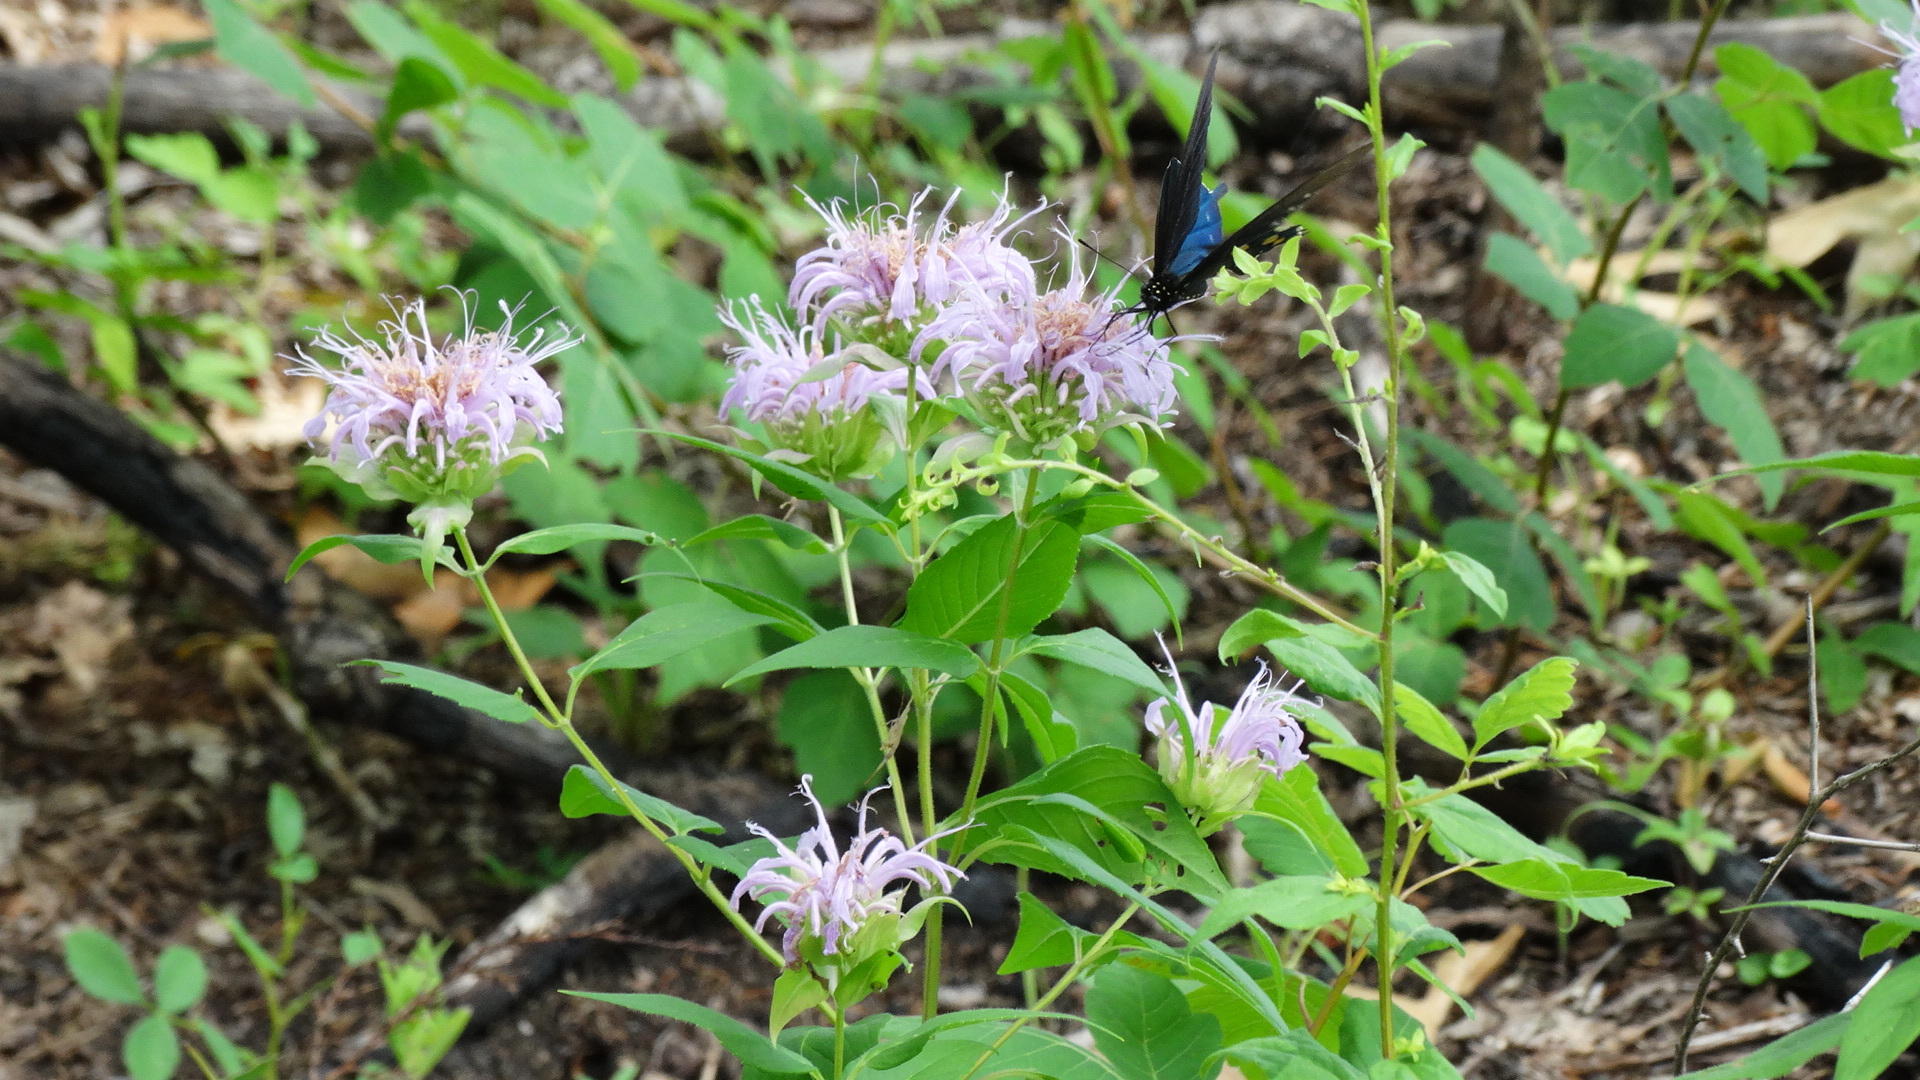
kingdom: Plantae
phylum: Tracheophyta
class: Magnoliopsida
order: Lamiales
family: Lamiaceae
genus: Monarda
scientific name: Monarda fistulosa
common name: Purple beebalm
